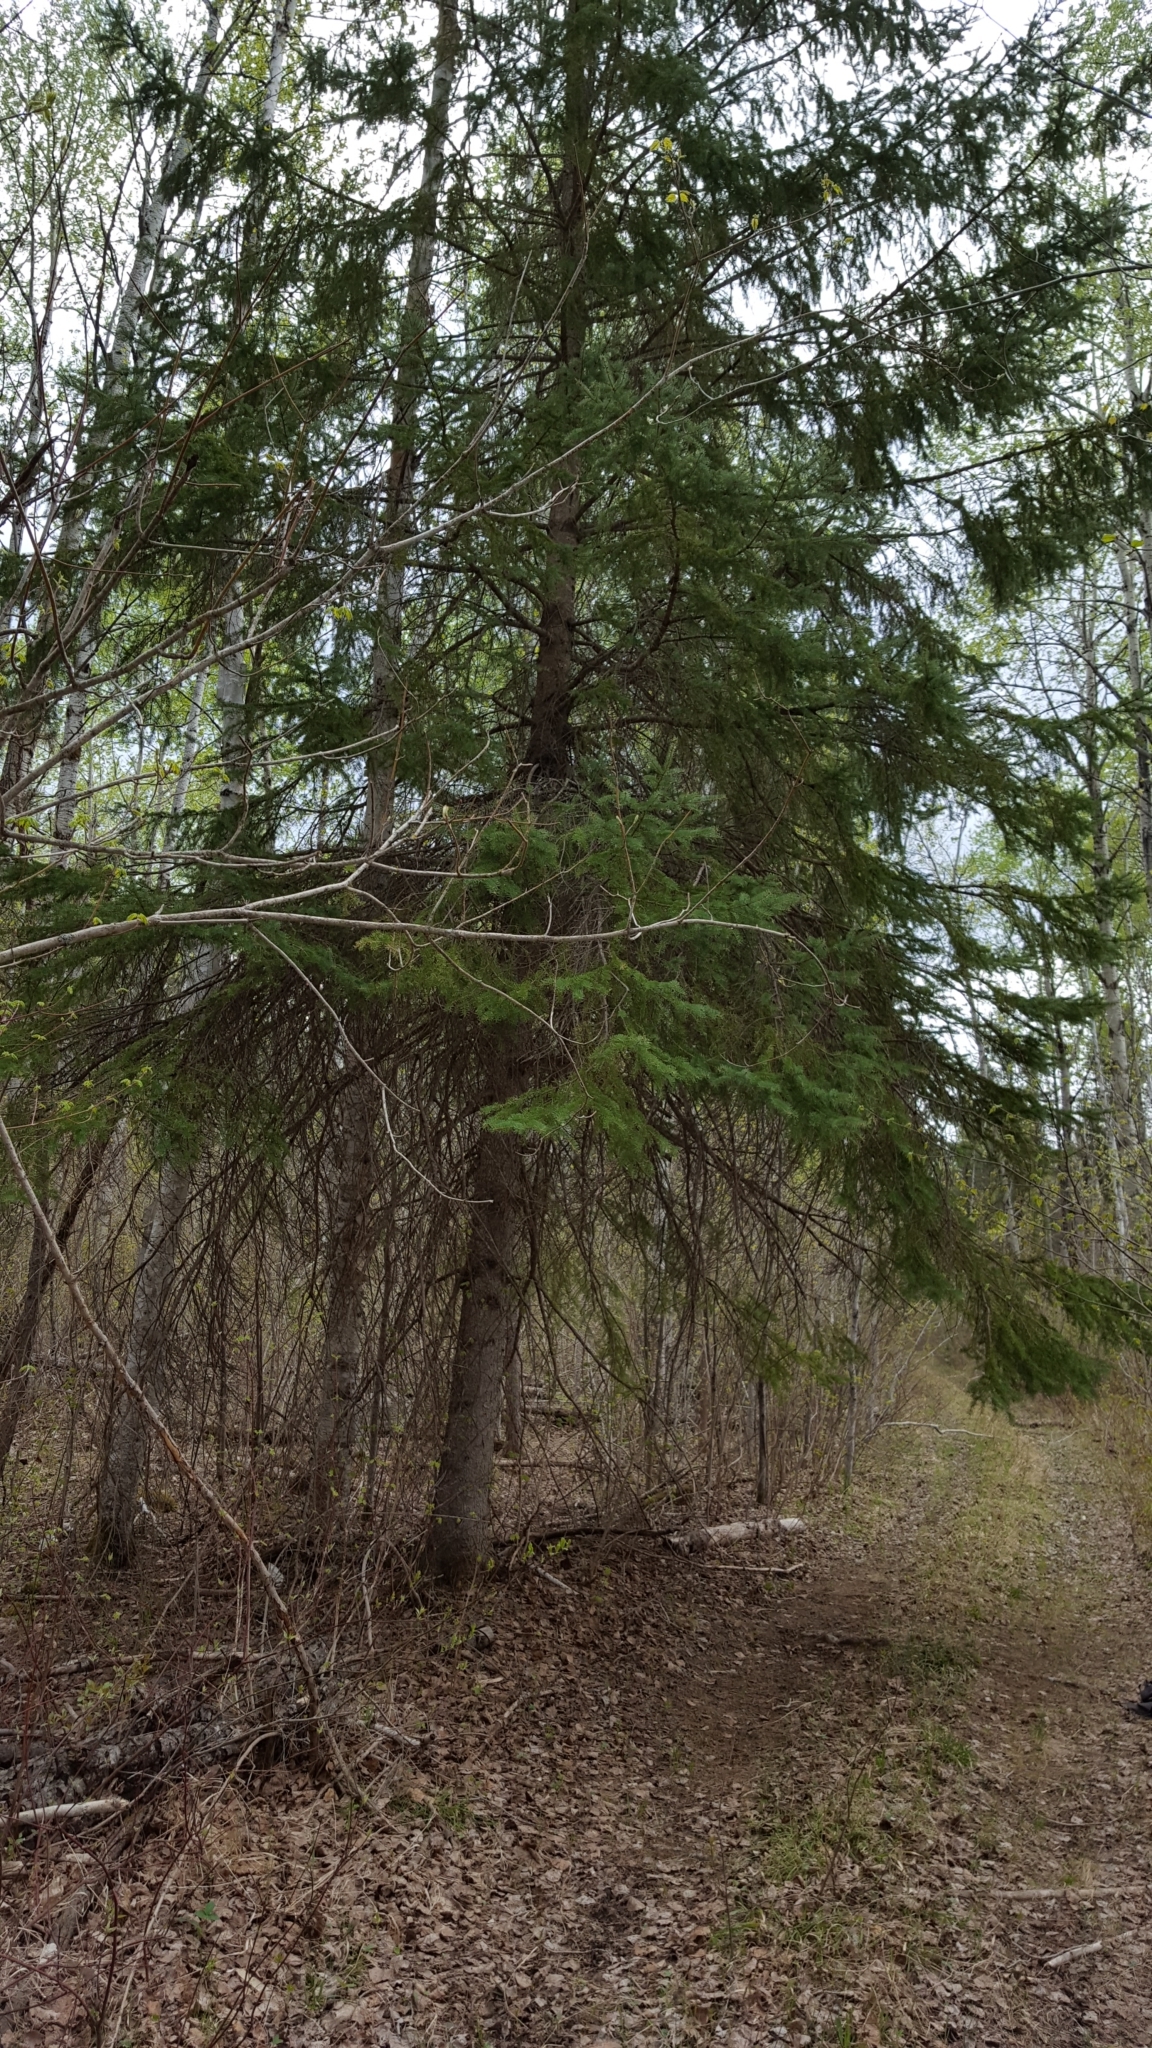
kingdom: Plantae
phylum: Tracheophyta
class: Pinopsida
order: Pinales
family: Pinaceae
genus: Picea
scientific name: Picea glauca
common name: White spruce
